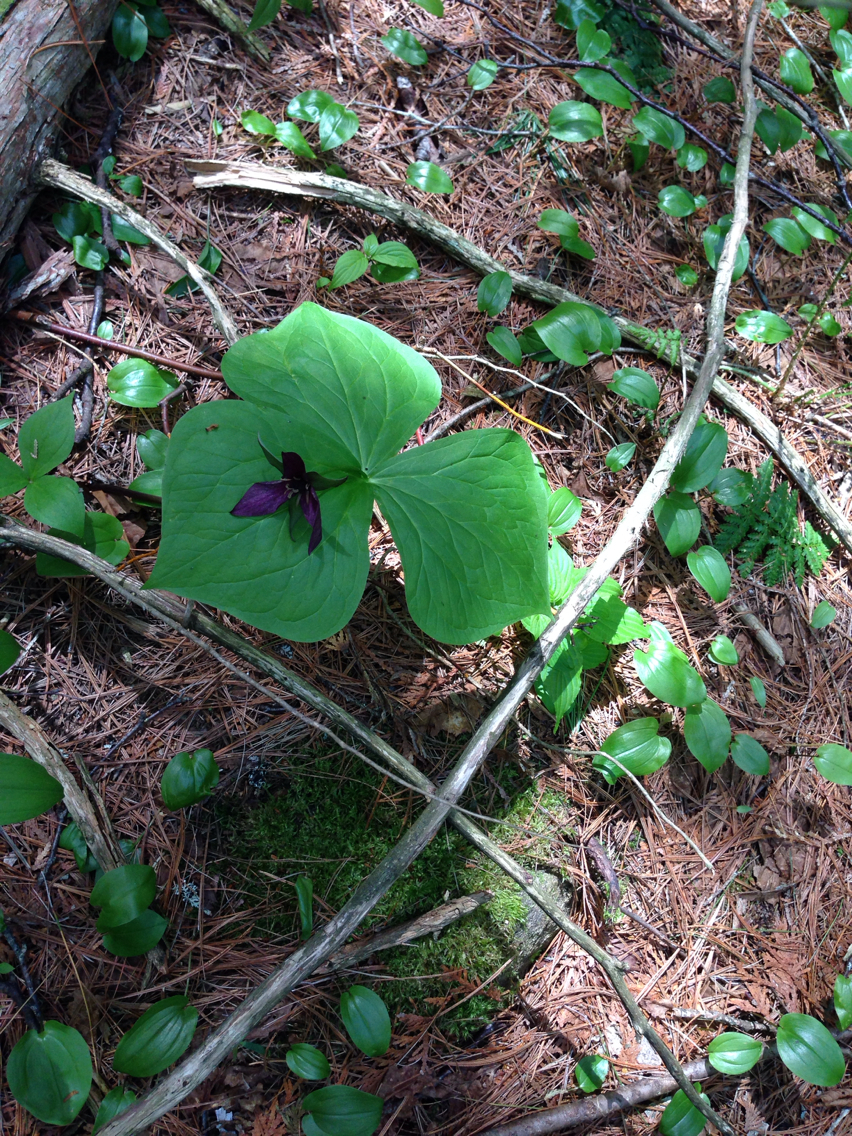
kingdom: Plantae
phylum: Tracheophyta
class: Liliopsida
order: Liliales
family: Melanthiaceae
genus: Trillium
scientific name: Trillium erectum
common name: Purple trillium
